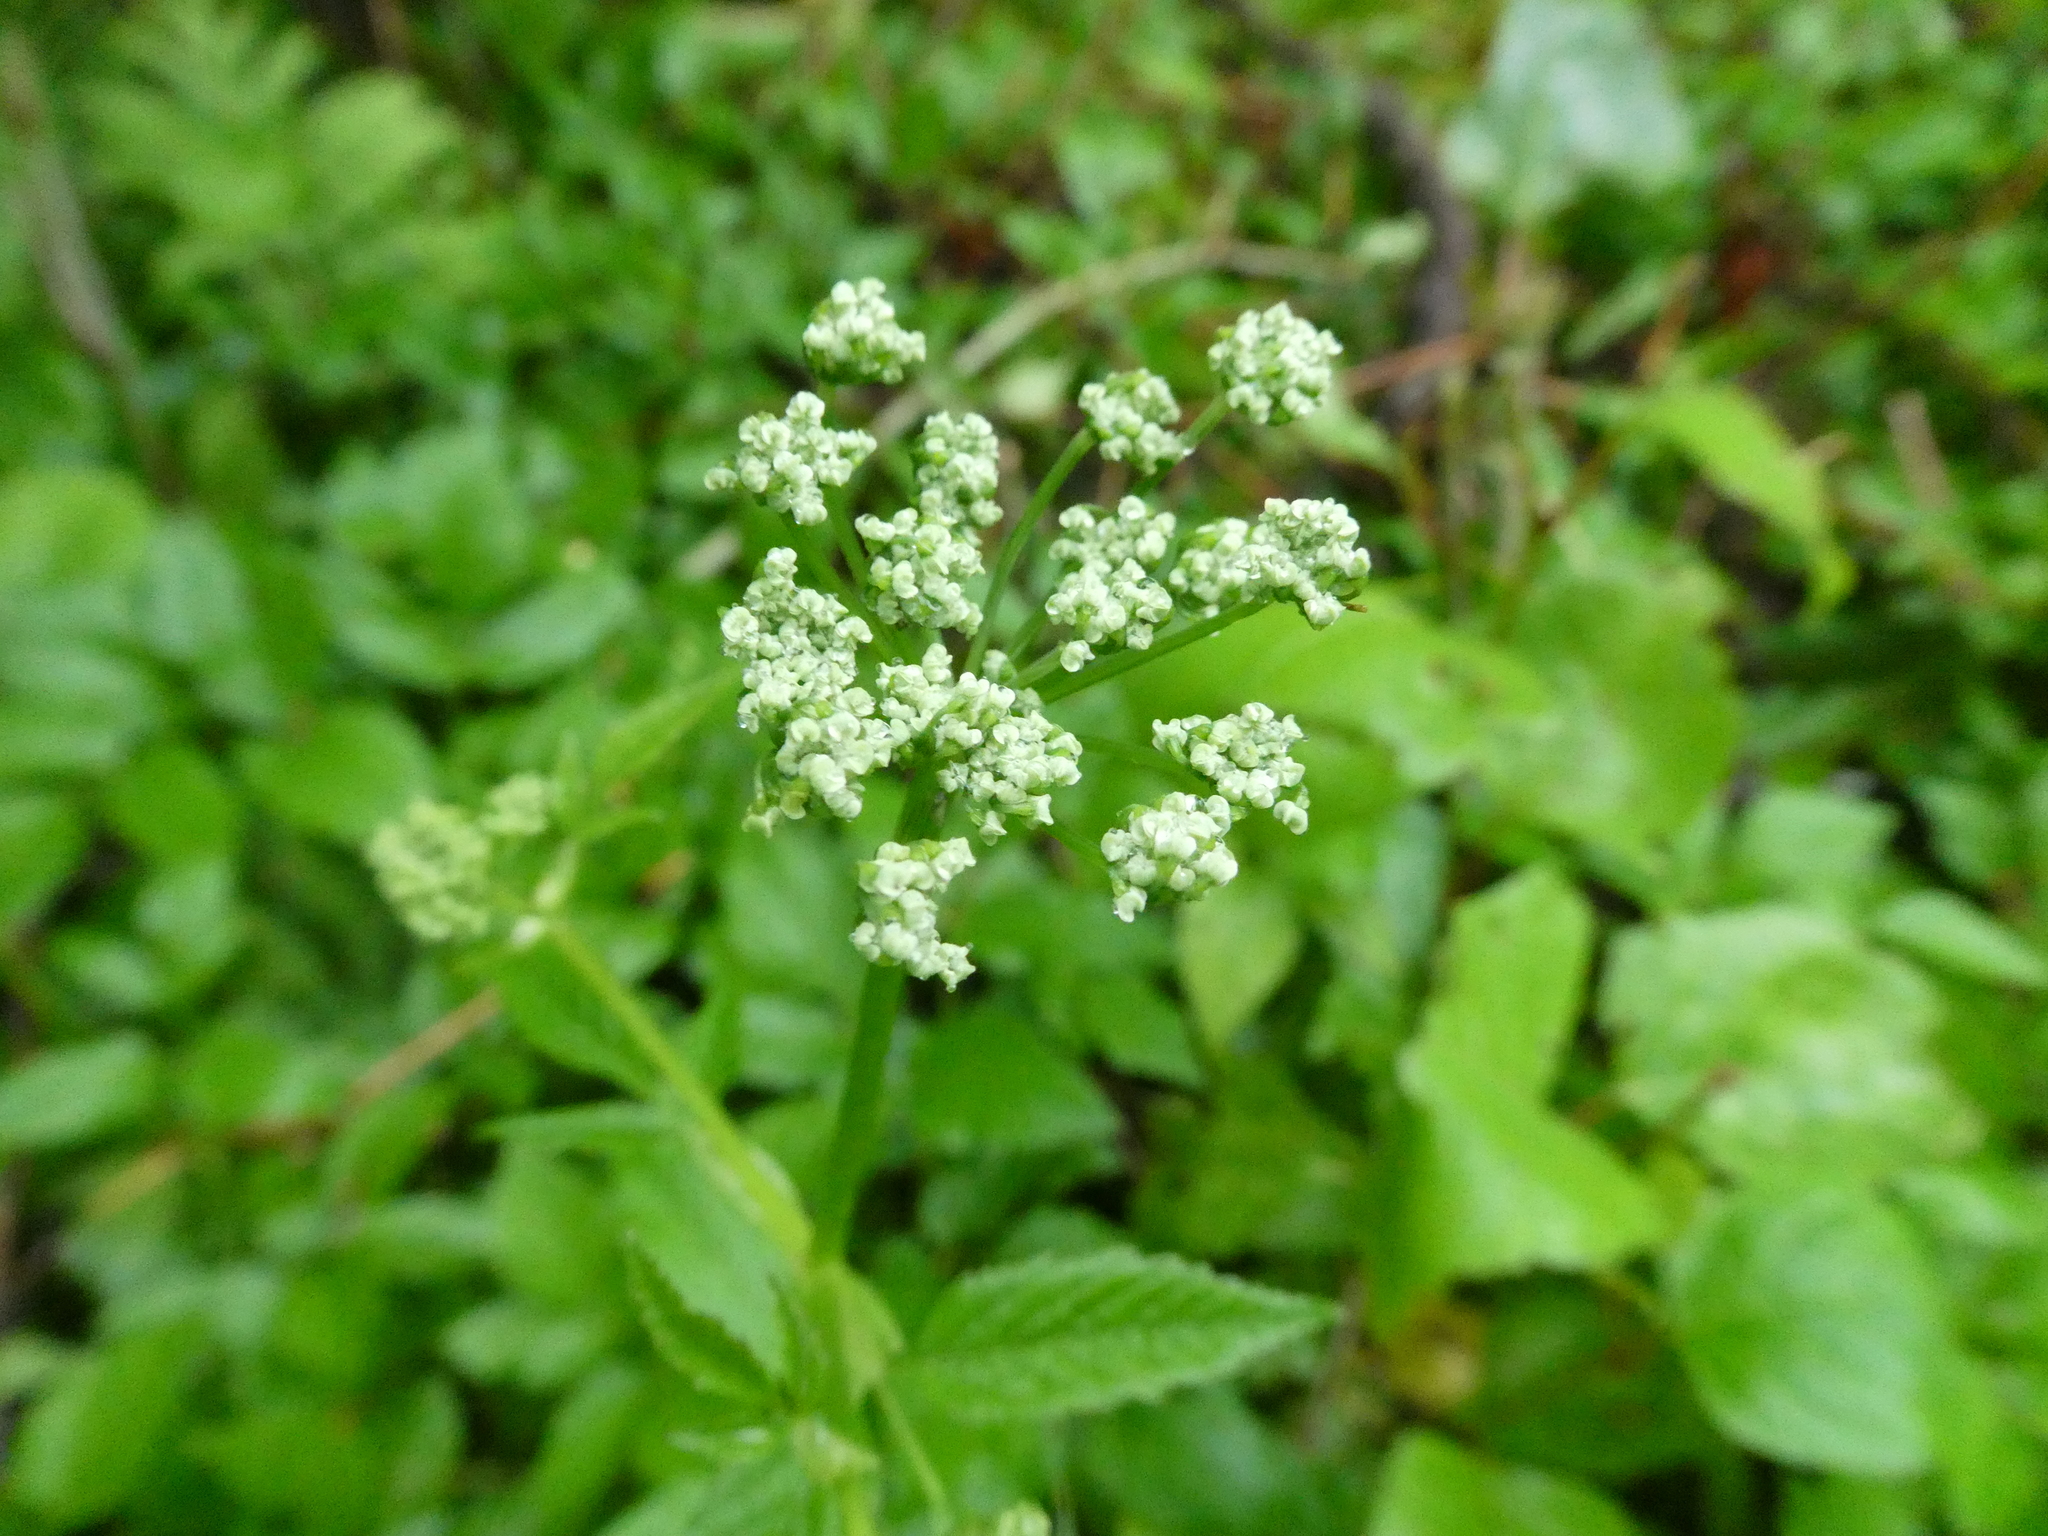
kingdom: Plantae
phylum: Tracheophyta
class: Magnoliopsida
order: Apiales
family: Apiaceae
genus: Aegopodium
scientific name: Aegopodium podagraria
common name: Ground-elder
